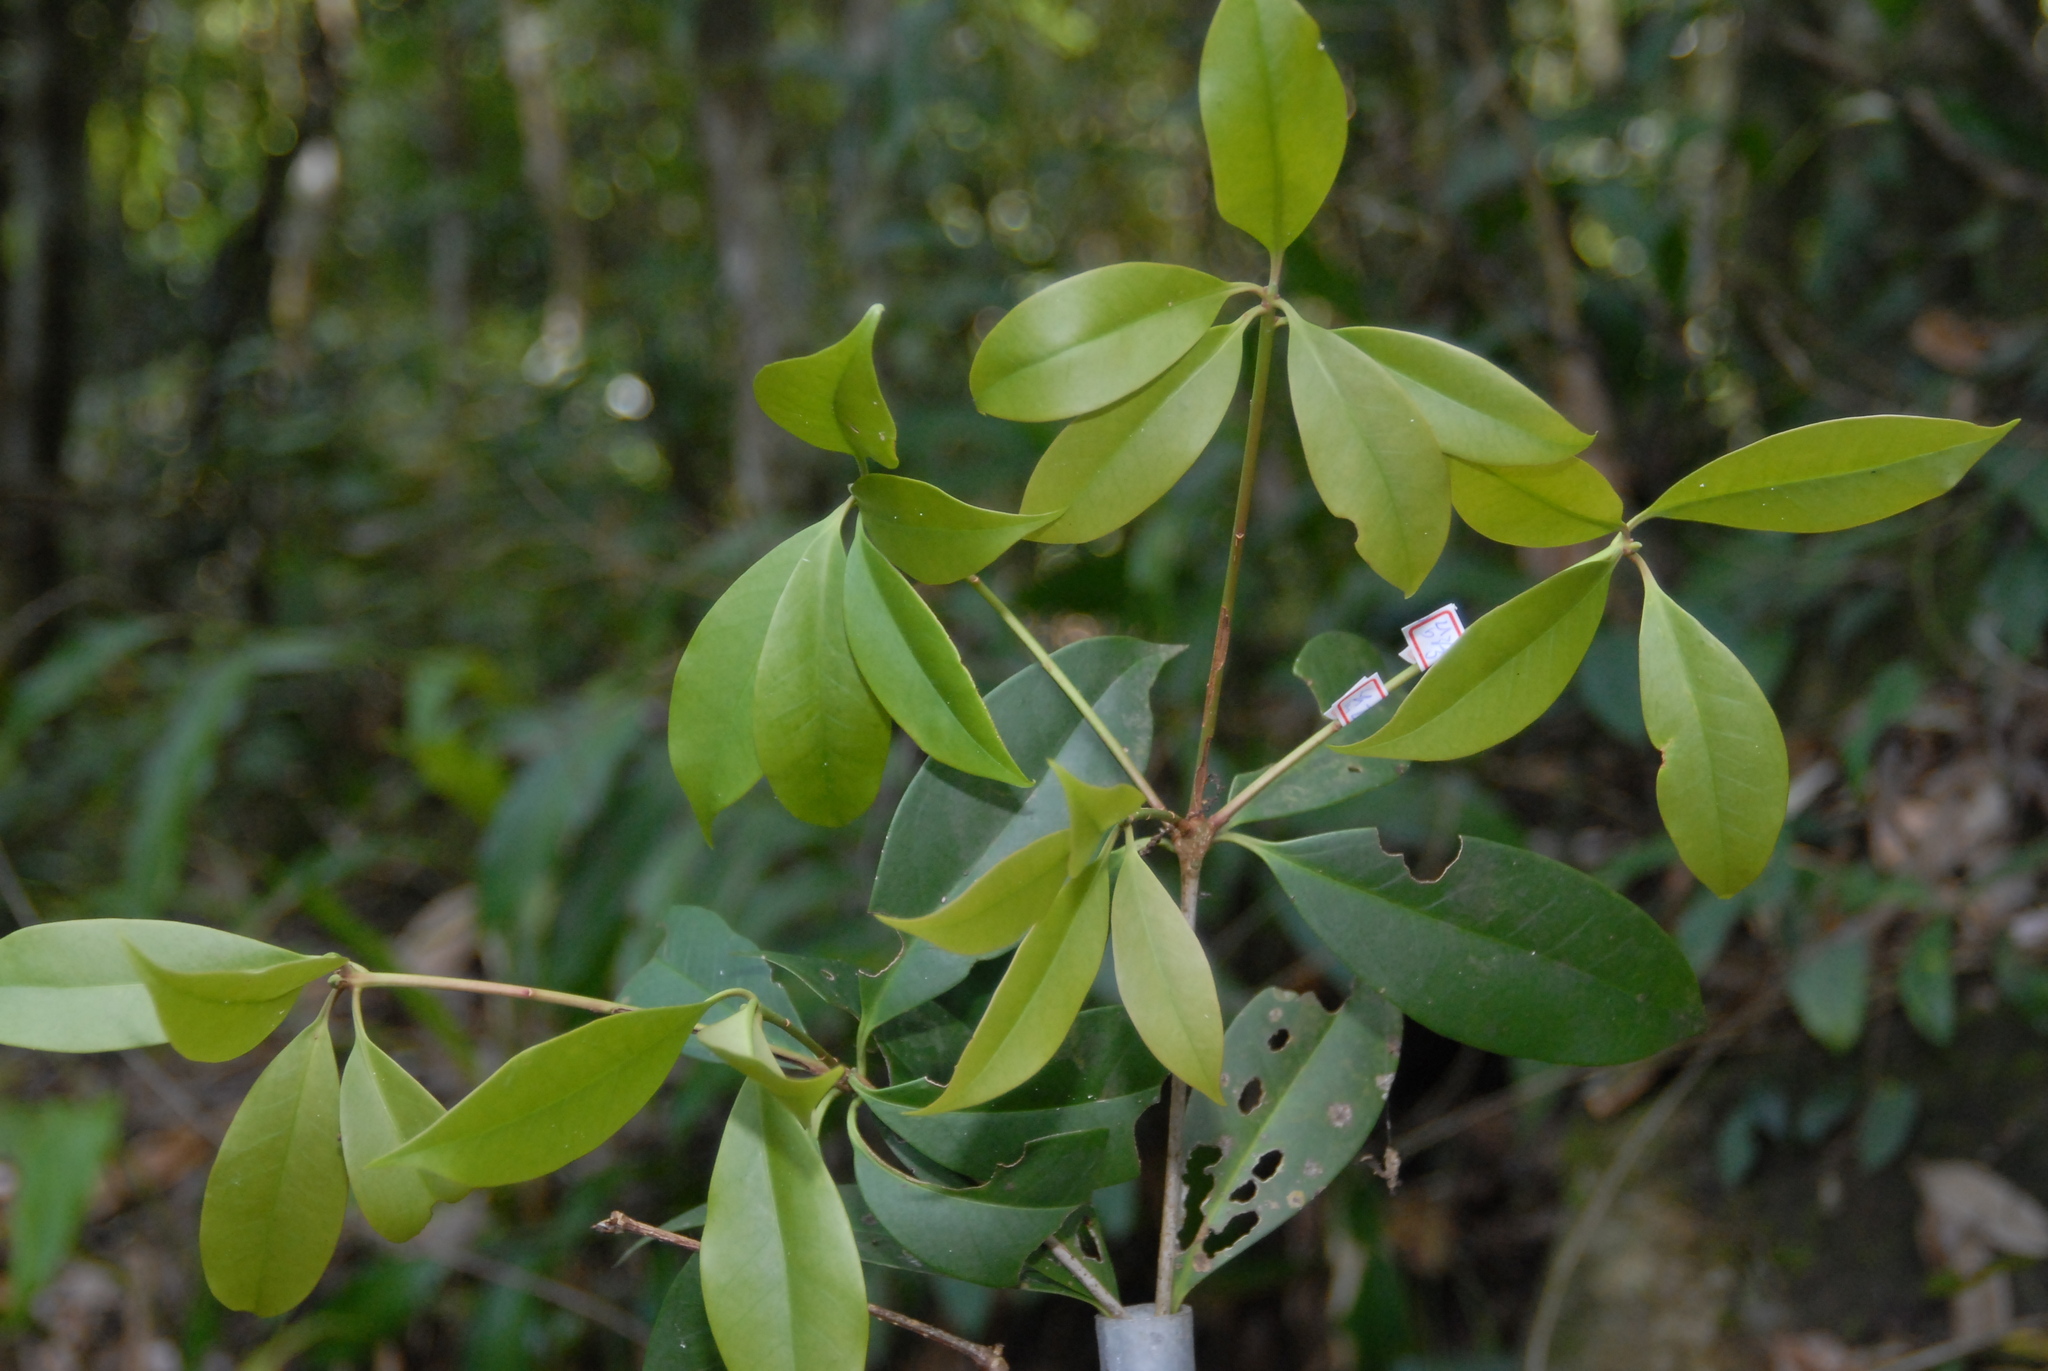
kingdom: Plantae
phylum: Tracheophyta
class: Magnoliopsida
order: Austrobaileyales
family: Schisandraceae
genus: Illicium
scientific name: Illicium arborescens
